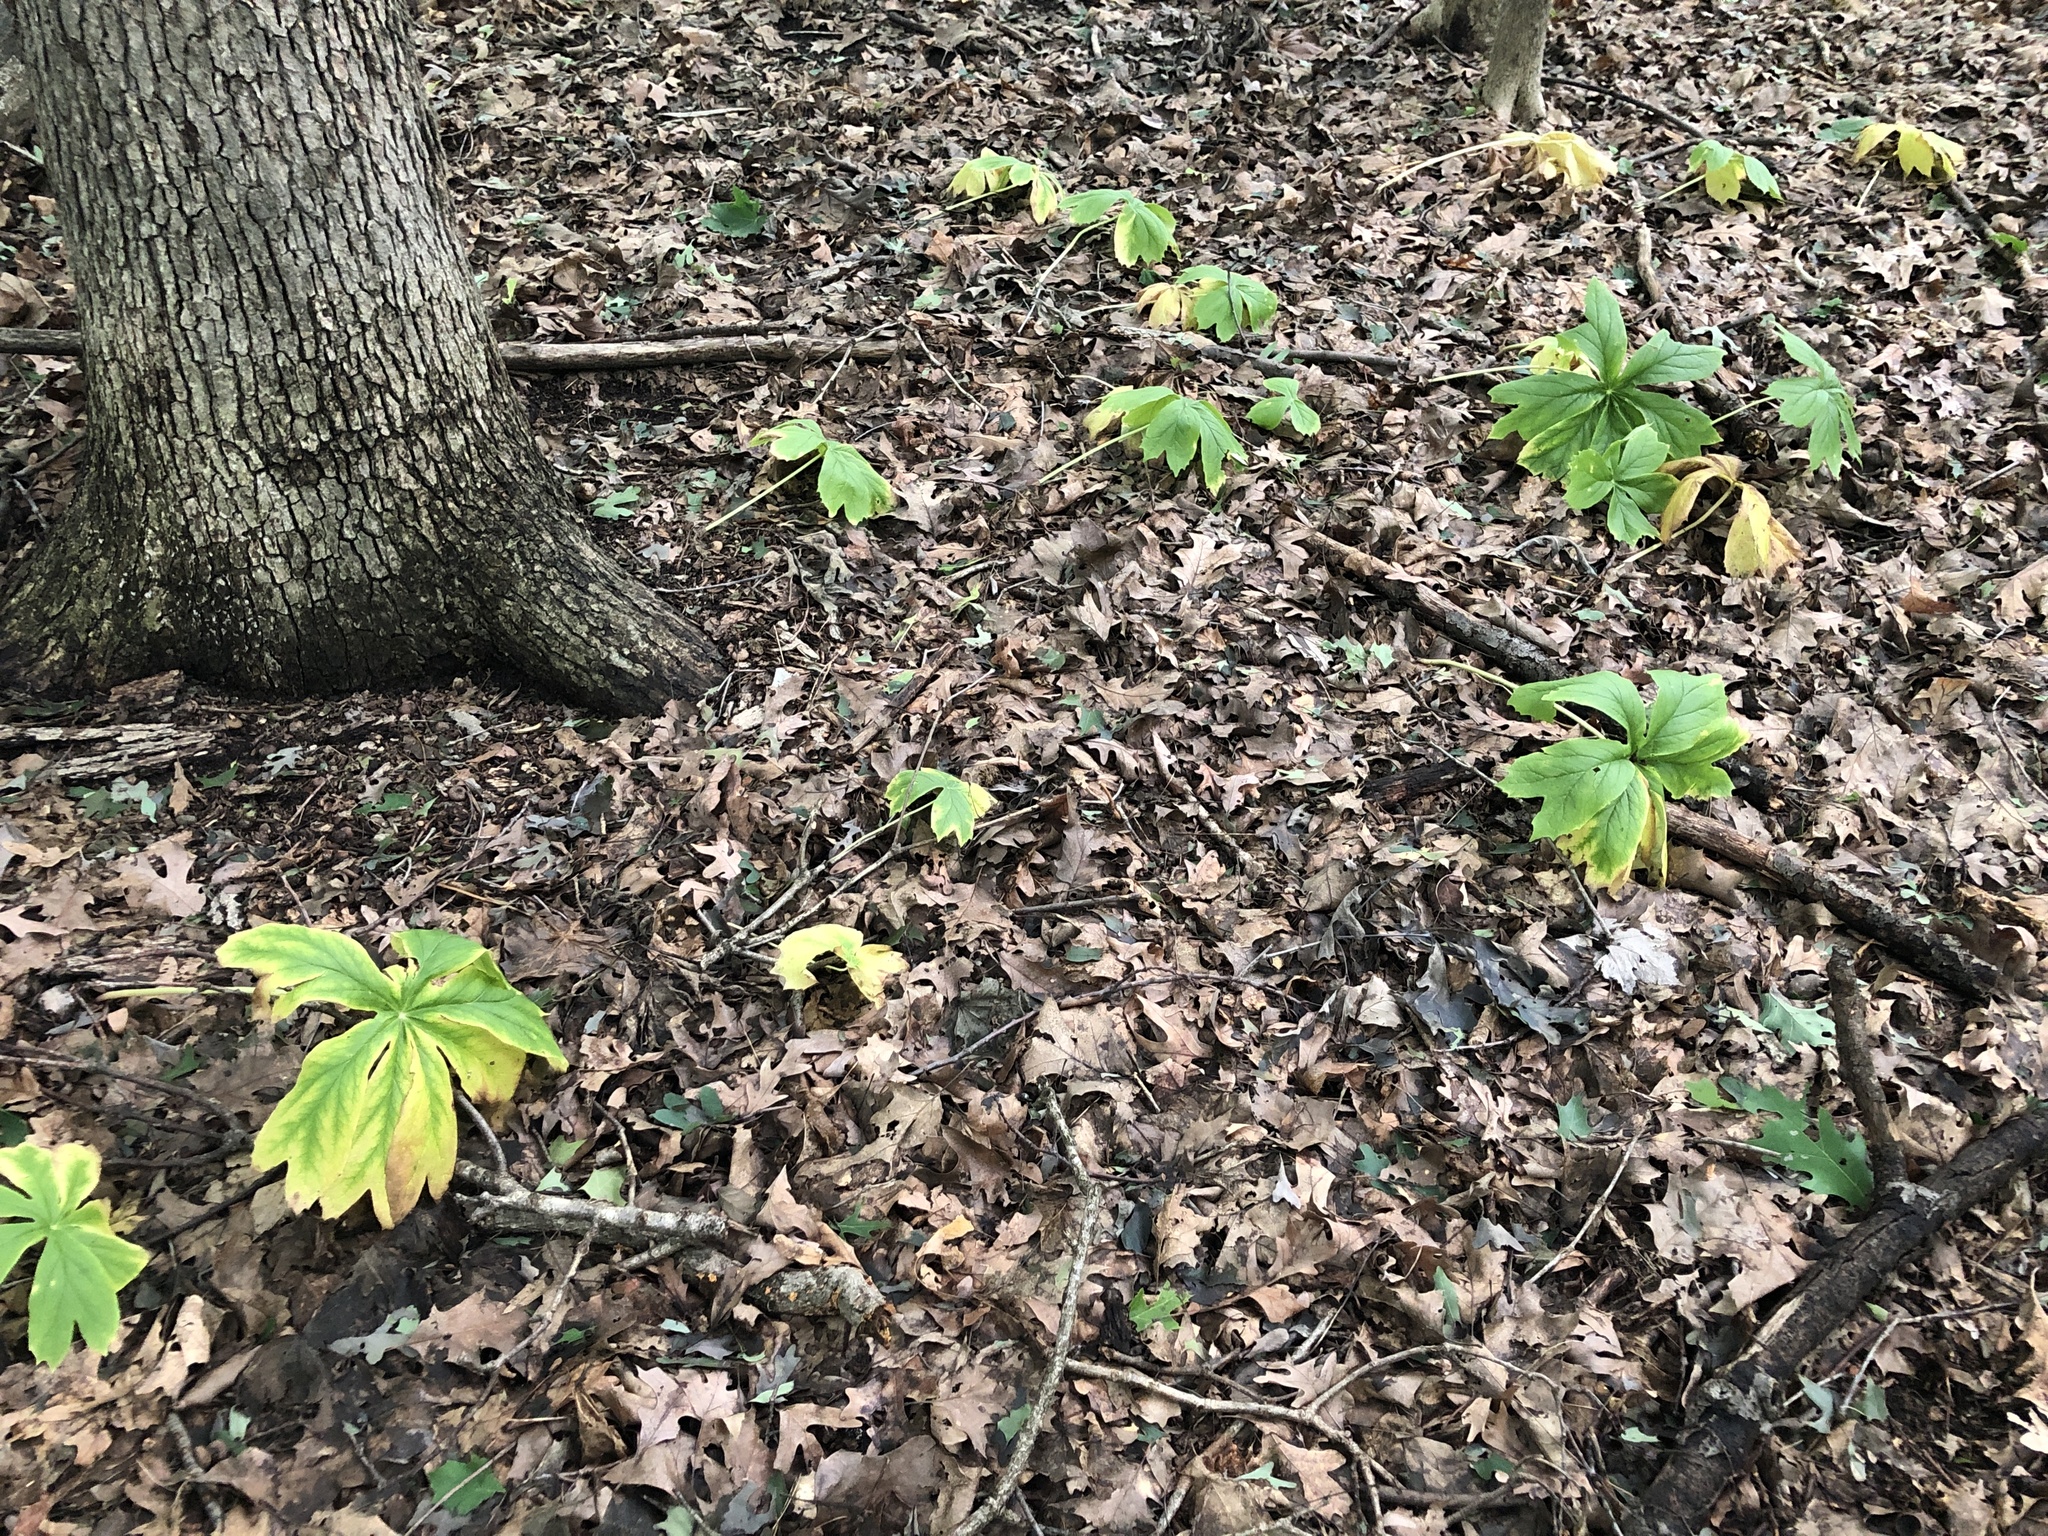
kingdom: Plantae
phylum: Tracheophyta
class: Magnoliopsida
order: Ranunculales
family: Berberidaceae
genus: Podophyllum
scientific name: Podophyllum peltatum
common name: Wild mandrake
